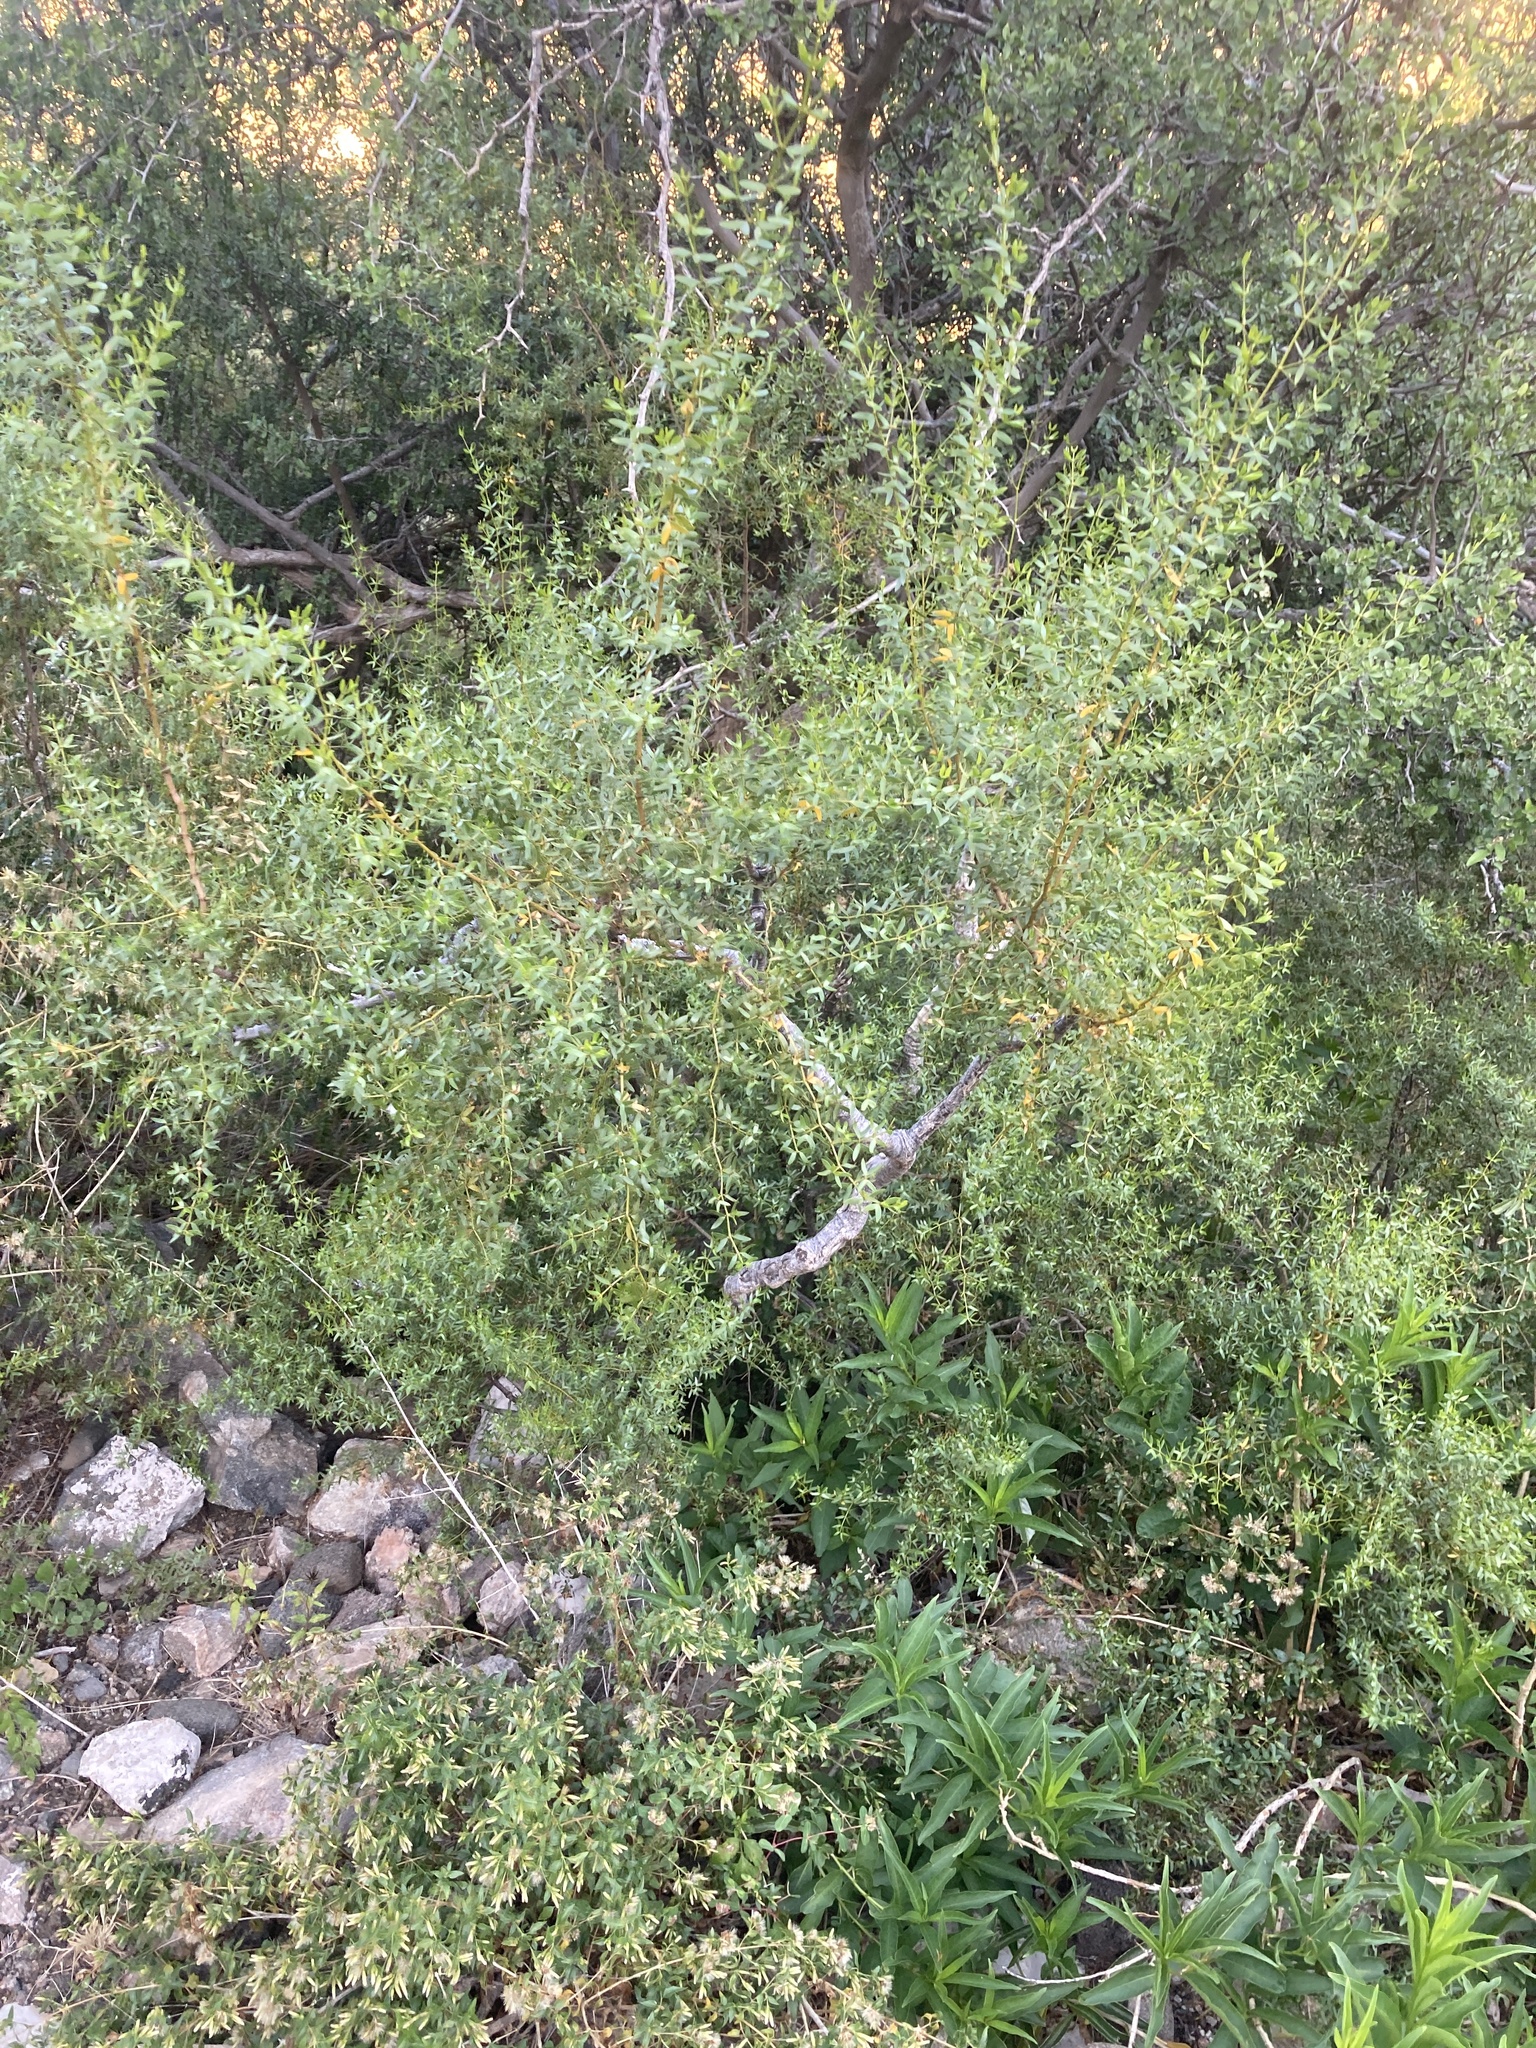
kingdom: Plantae
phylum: Tracheophyta
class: Magnoliopsida
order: Zygophyllales
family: Zygophyllaceae
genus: Larrea
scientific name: Larrea divaricata
